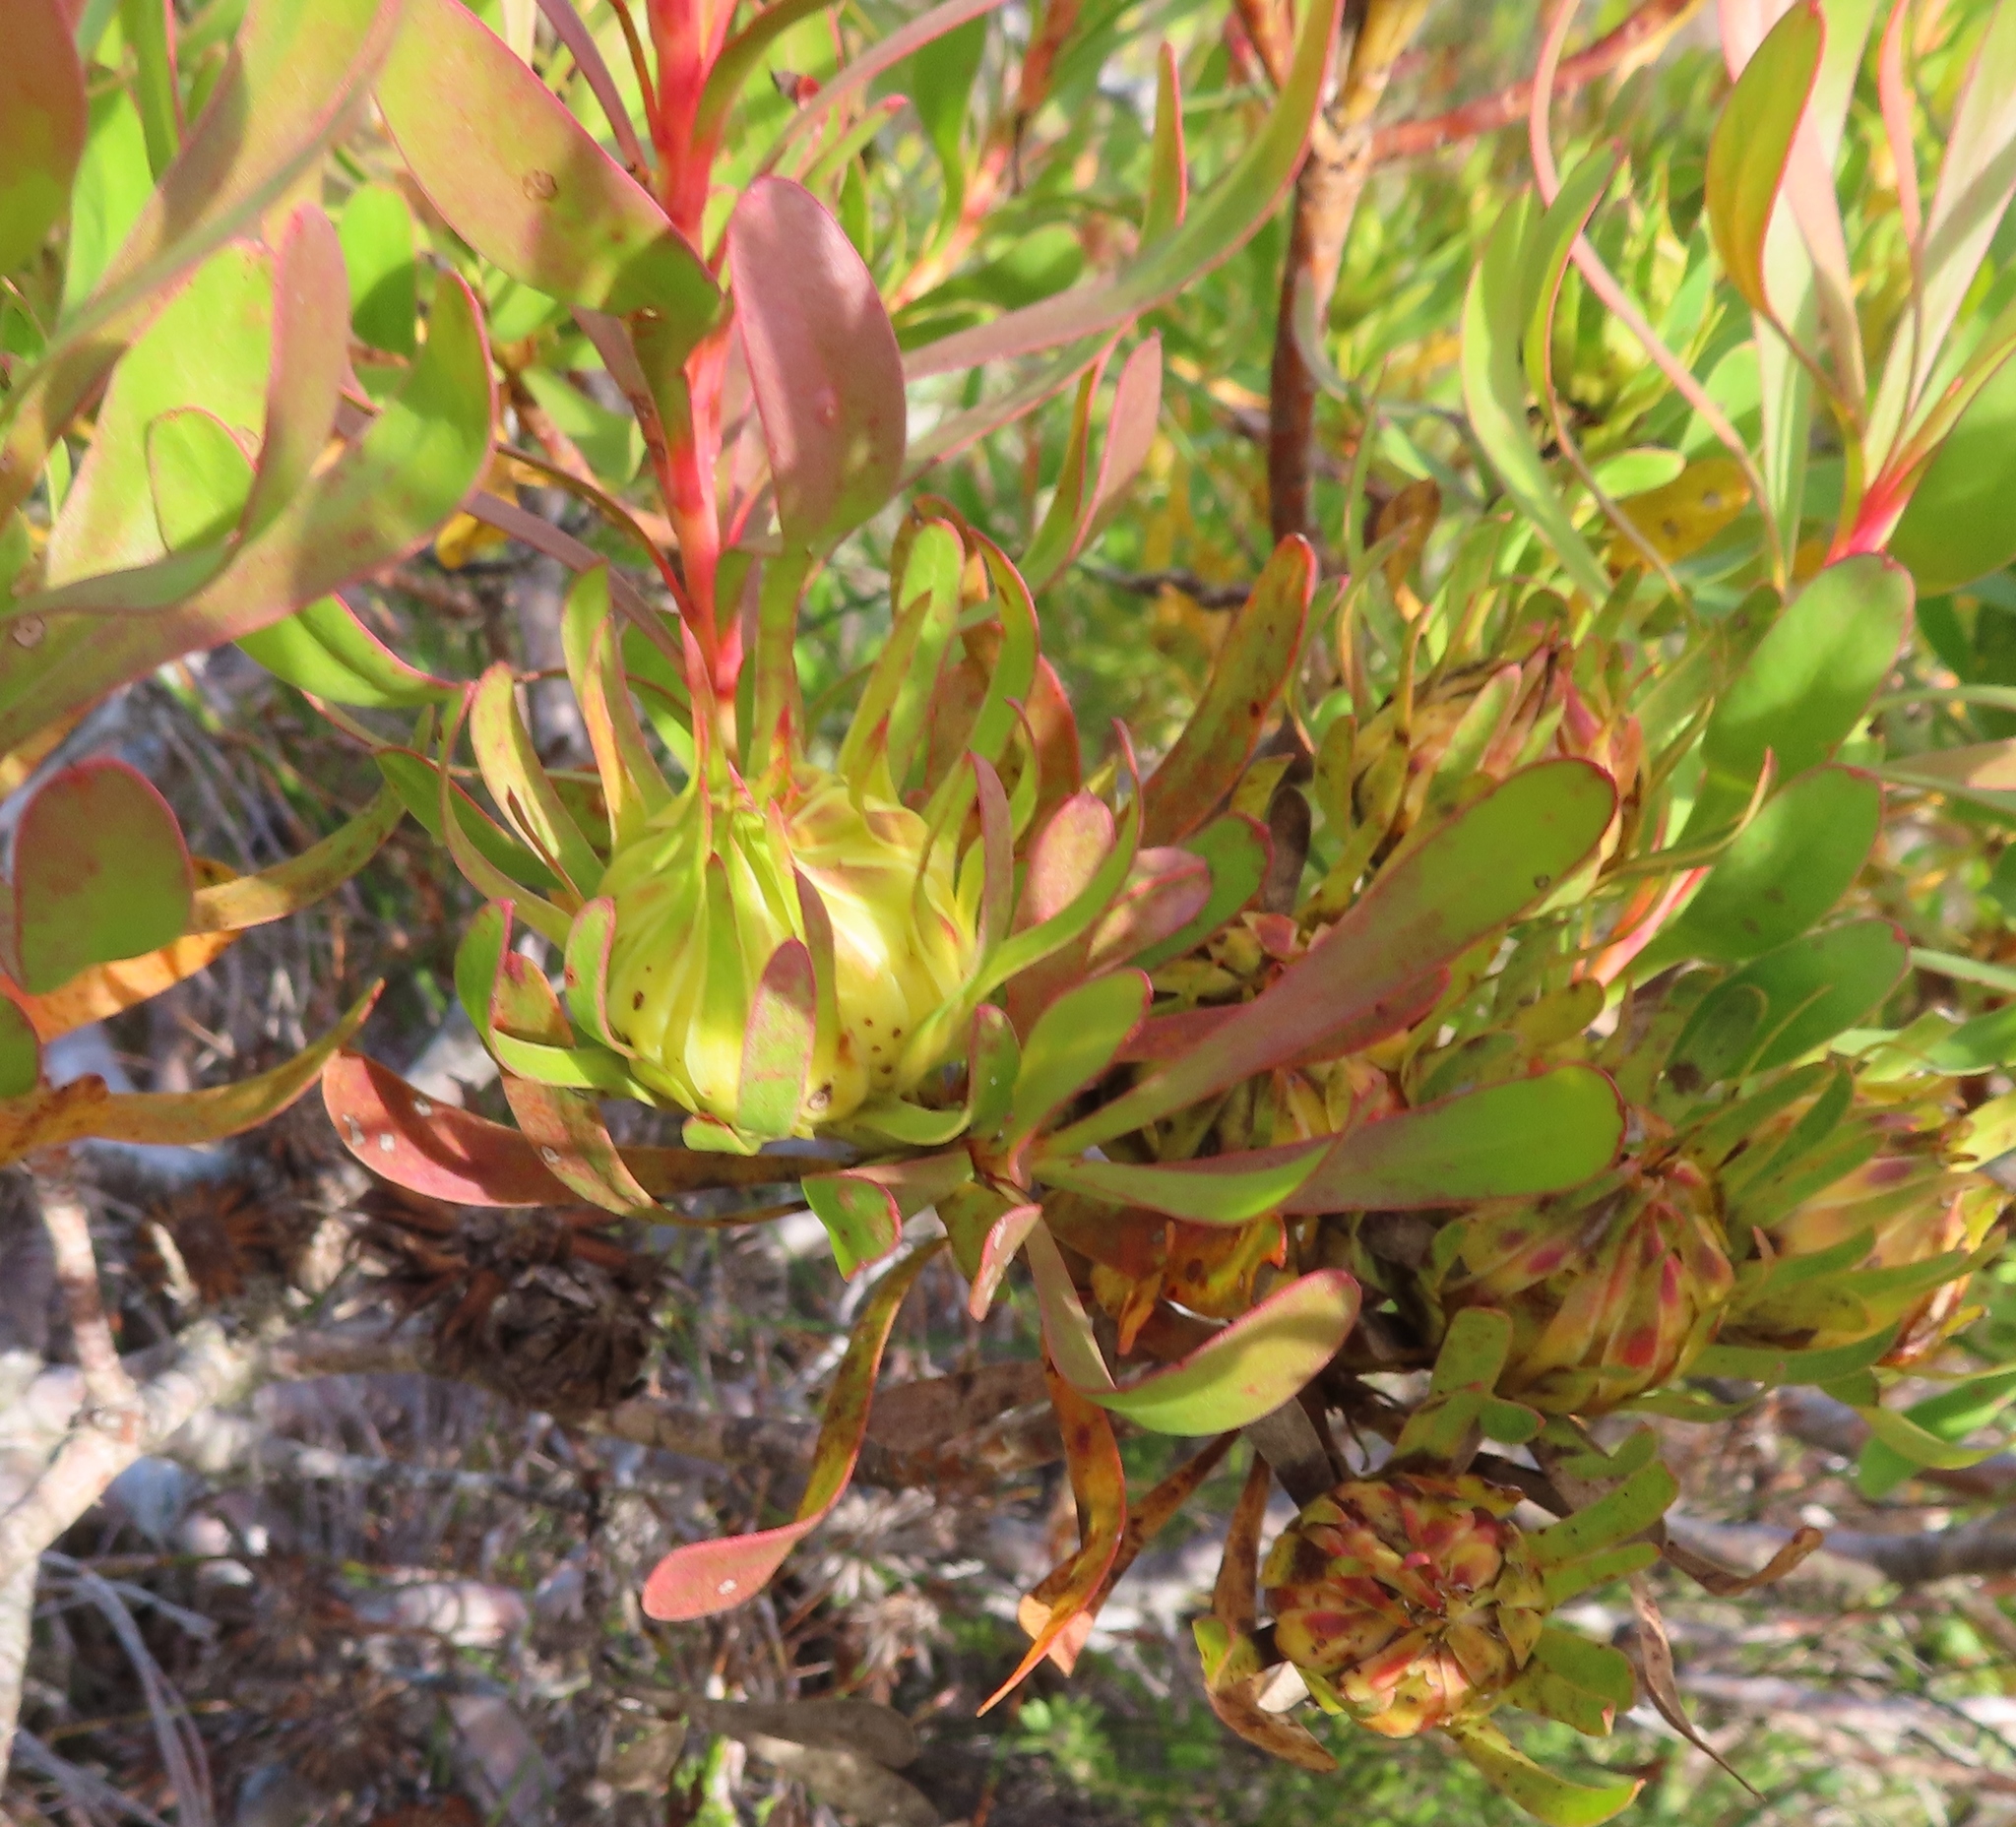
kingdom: Plantae
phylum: Tracheophyta
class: Magnoliopsida
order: Proteales
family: Proteaceae
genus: Aulax
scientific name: Aulax umbellata
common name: Broad-leaf featherbush
